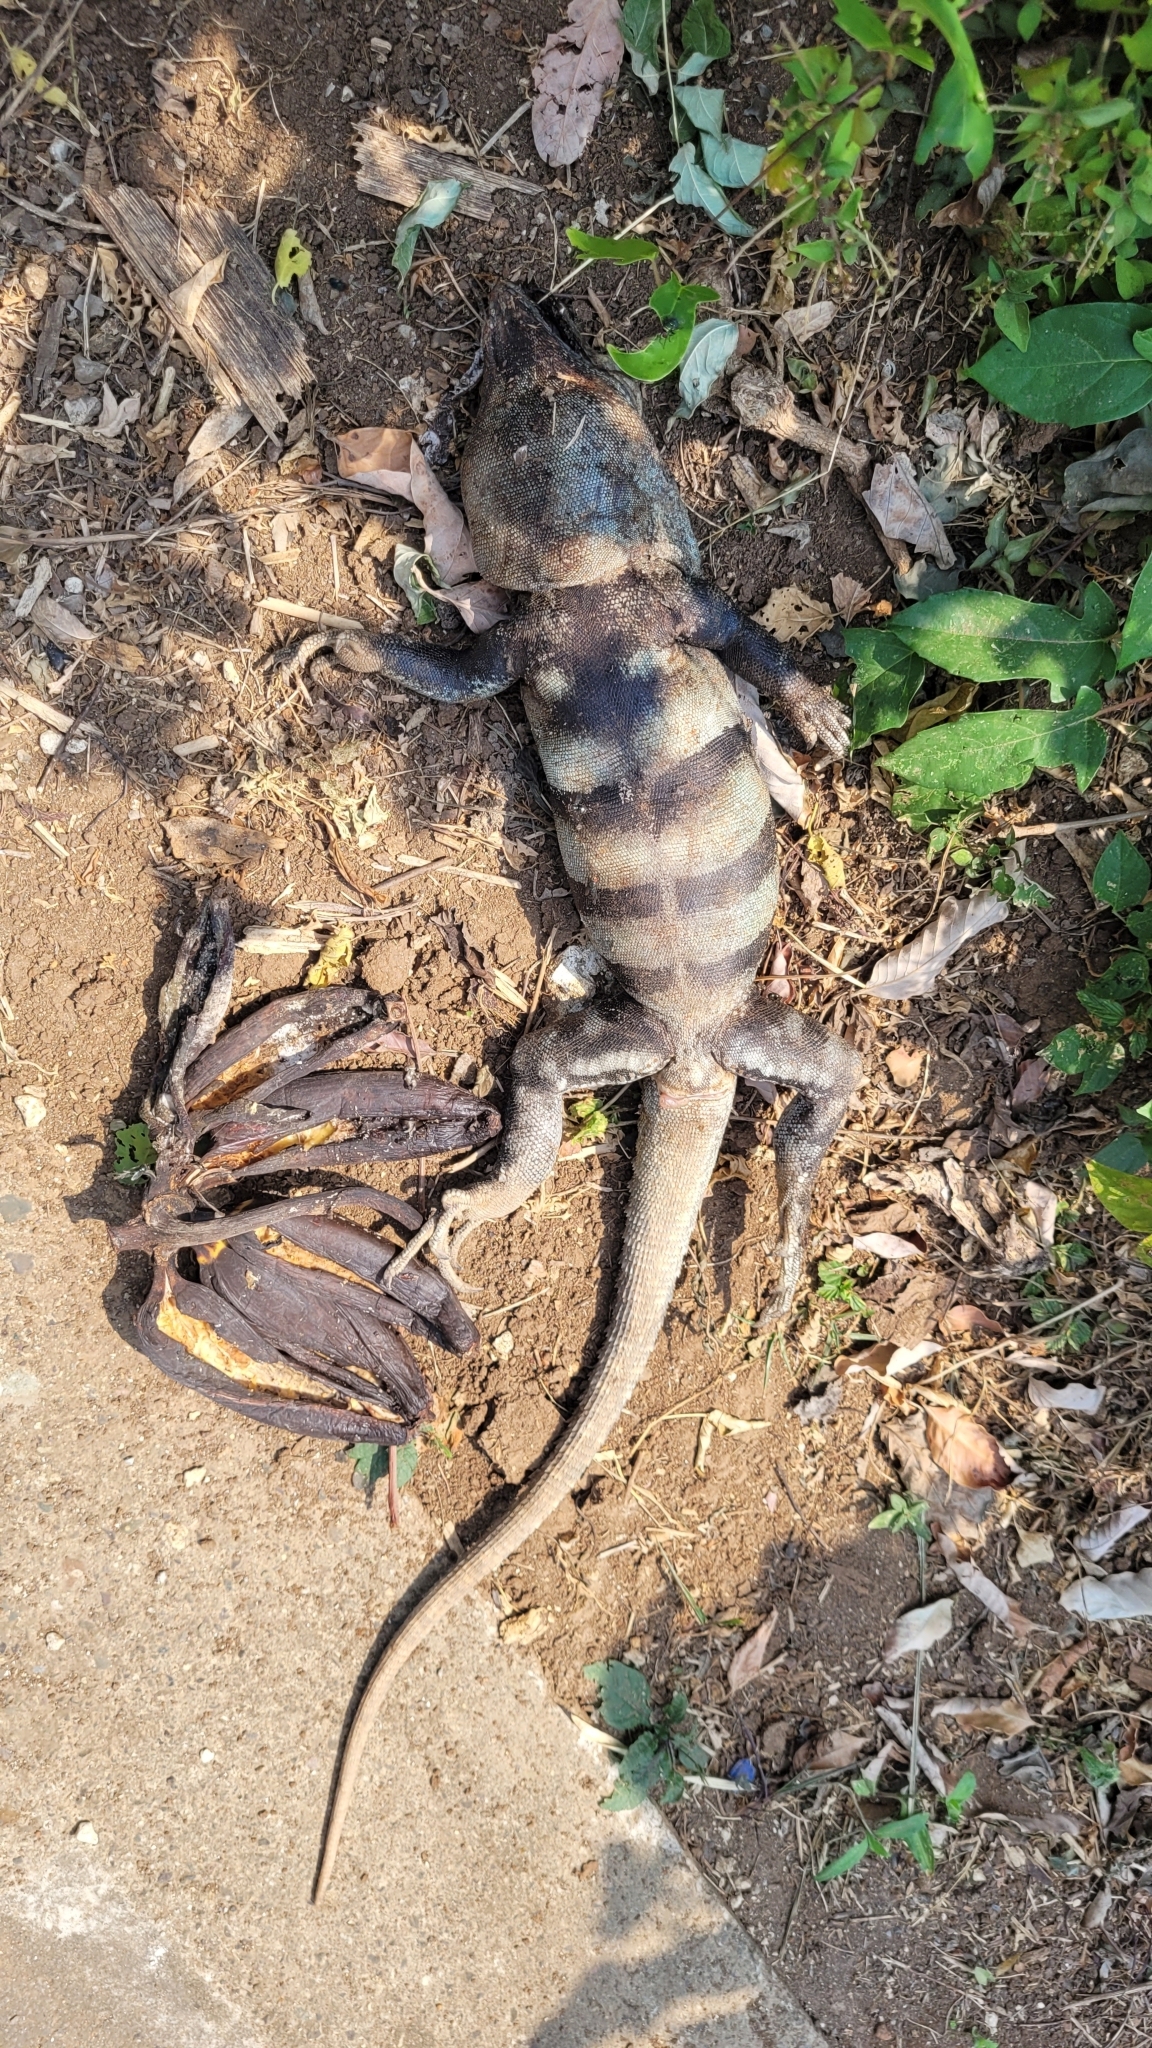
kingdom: Animalia
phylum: Chordata
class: Squamata
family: Iguanidae
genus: Ctenosaura
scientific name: Ctenosaura similis
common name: Black spiny-tailed iguana
